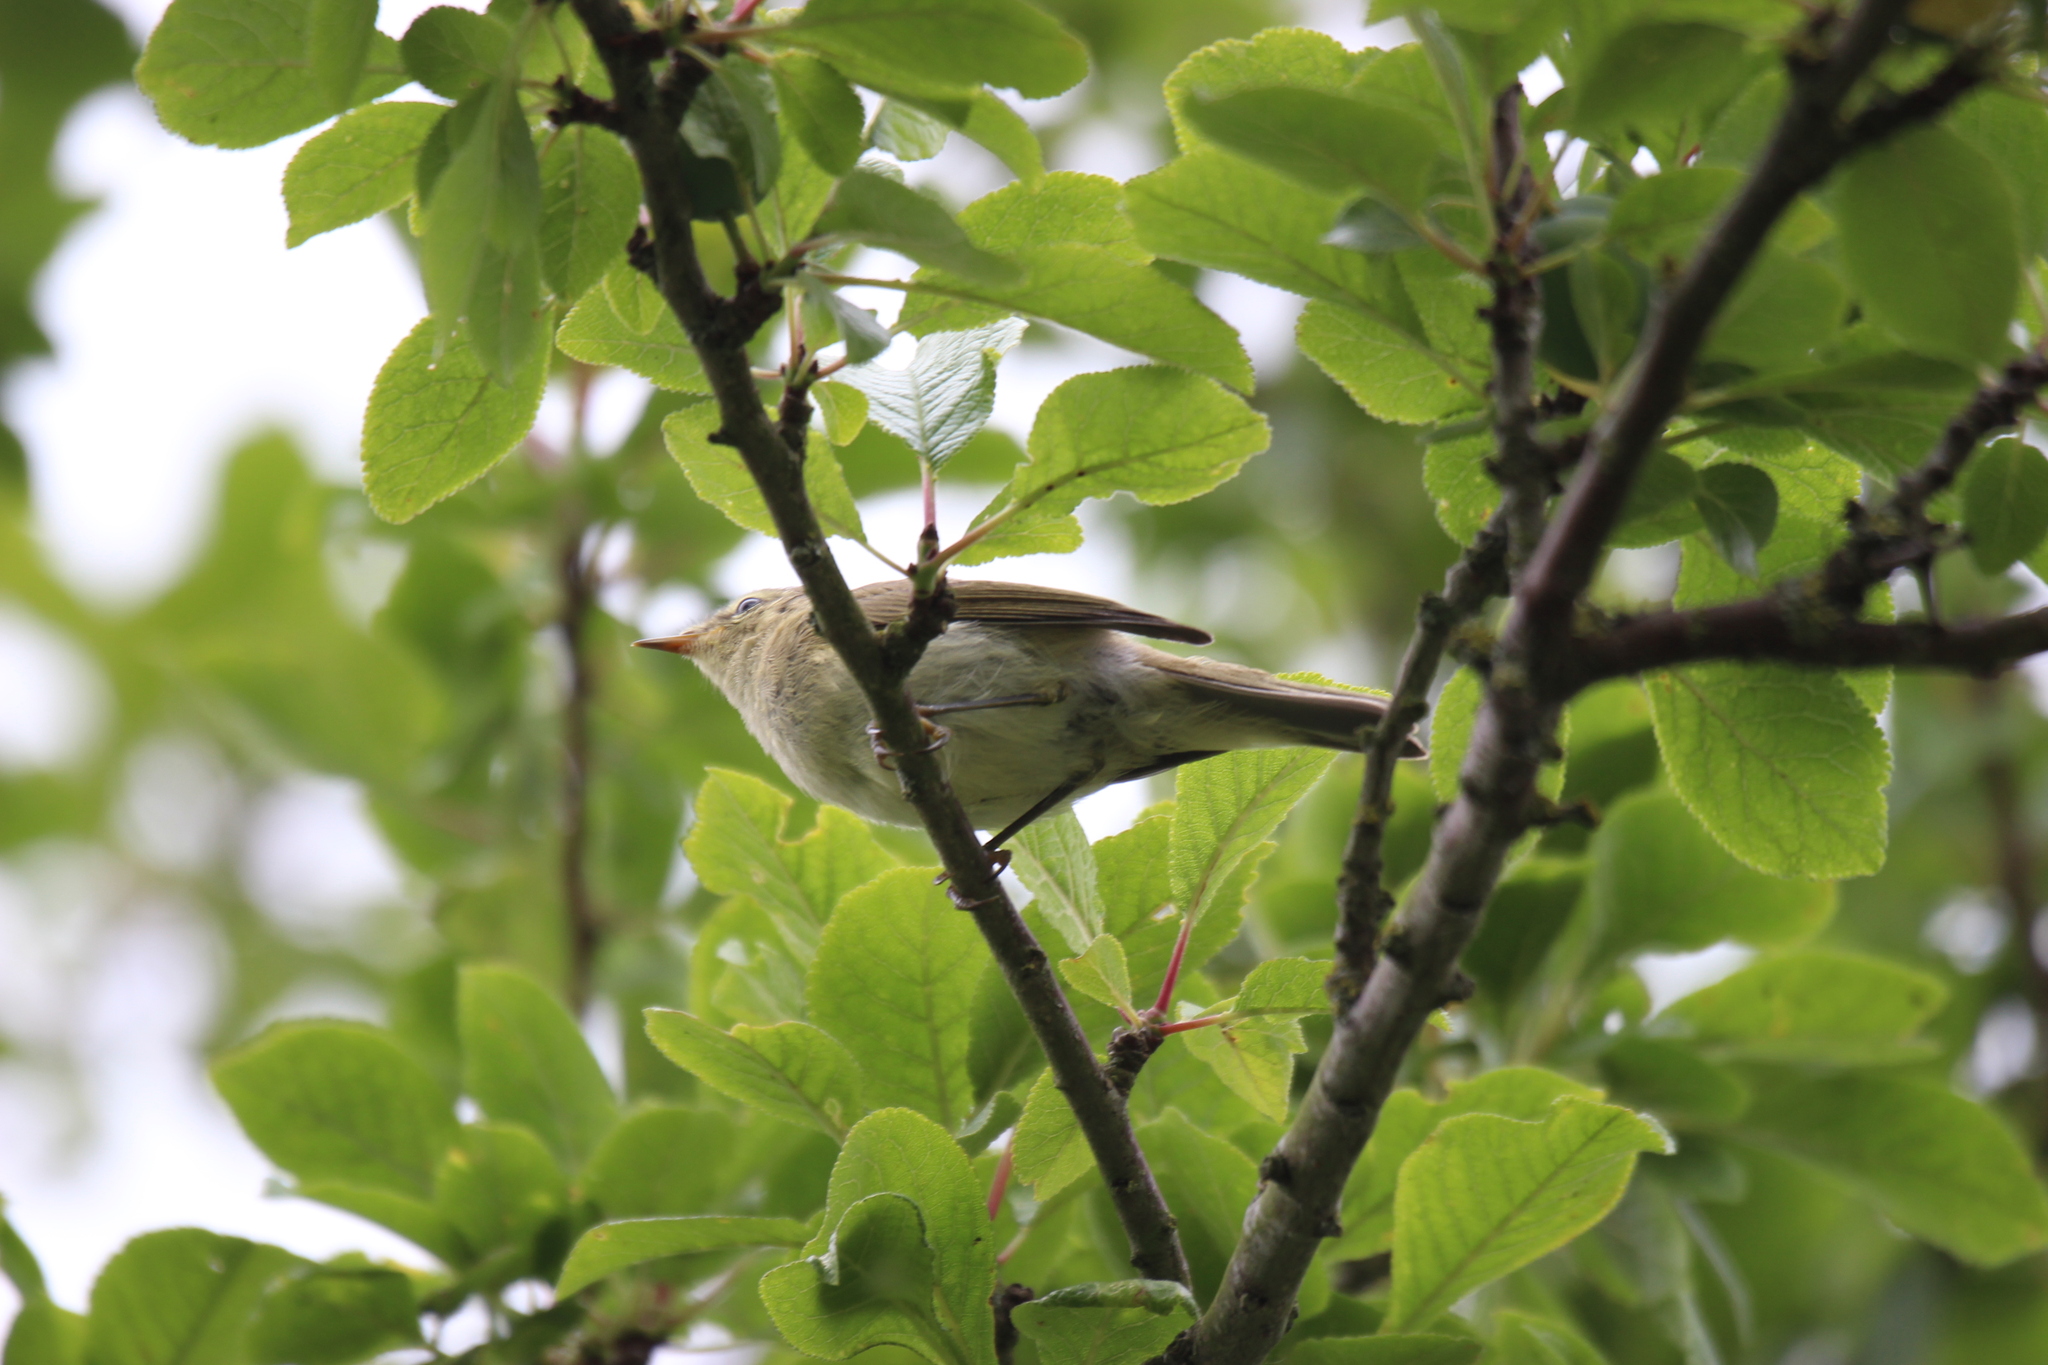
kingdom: Animalia
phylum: Chordata
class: Aves
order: Passeriformes
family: Phylloscopidae
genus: Phylloscopus
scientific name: Phylloscopus collybita
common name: Common chiffchaff
